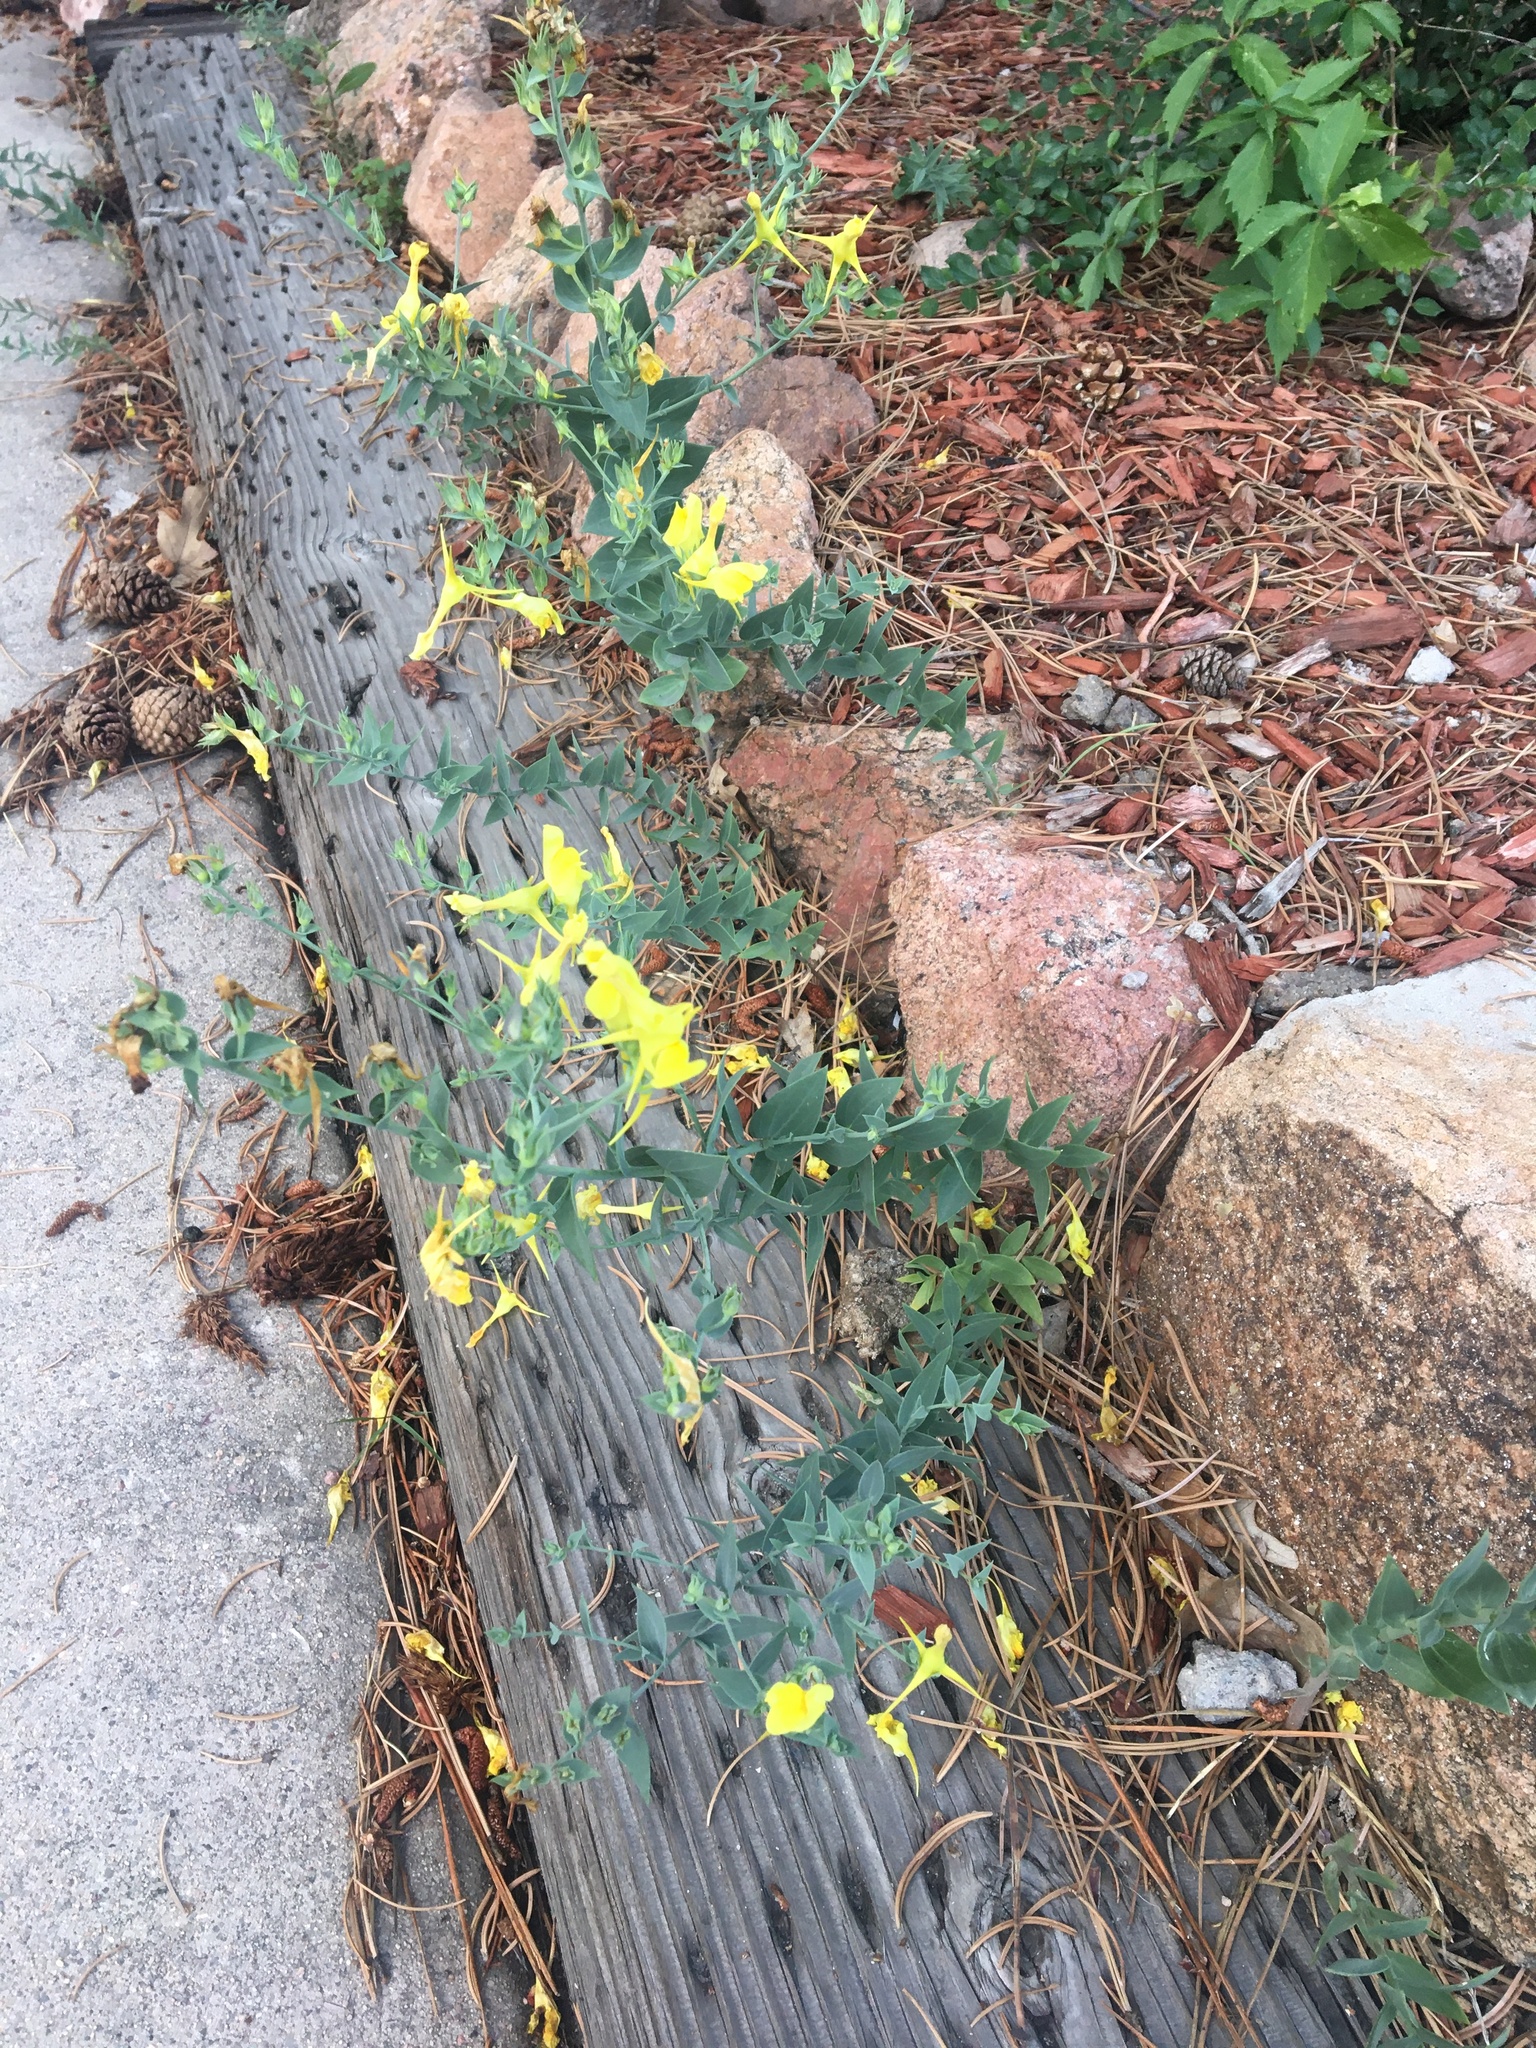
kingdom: Plantae
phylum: Tracheophyta
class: Magnoliopsida
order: Lamiales
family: Plantaginaceae
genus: Linaria
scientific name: Linaria dalmatica
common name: Dalmatian toadflax
